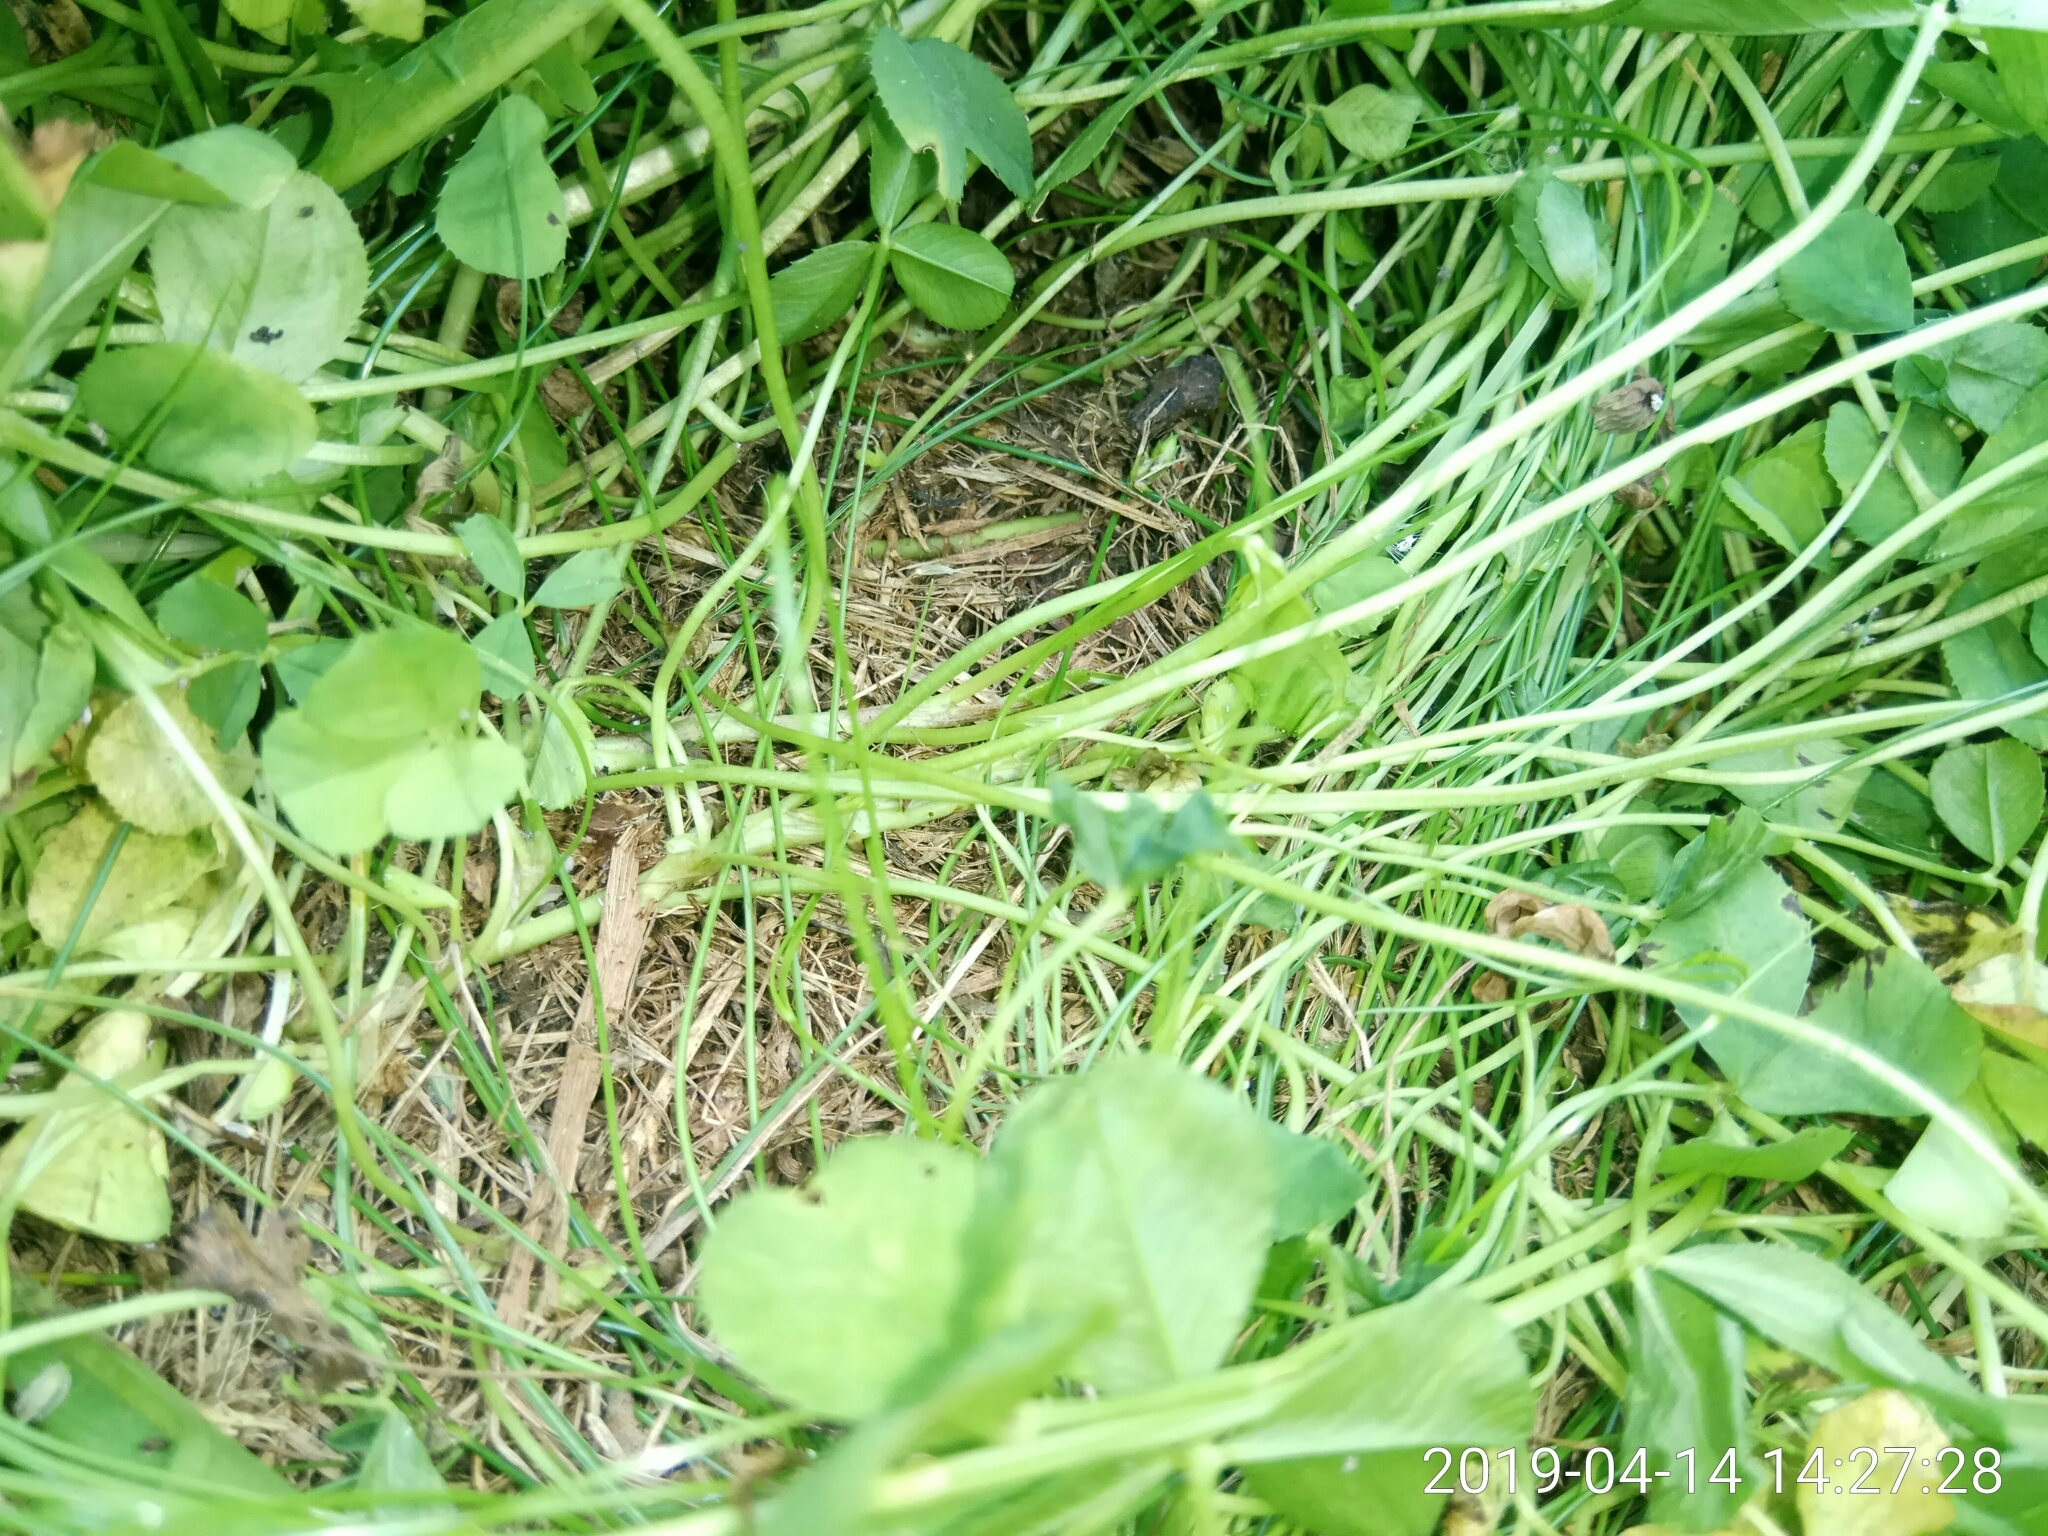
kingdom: Plantae
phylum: Tracheophyta
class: Magnoliopsida
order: Fabales
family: Fabaceae
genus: Trifolium
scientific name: Trifolium repens
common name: White clover
